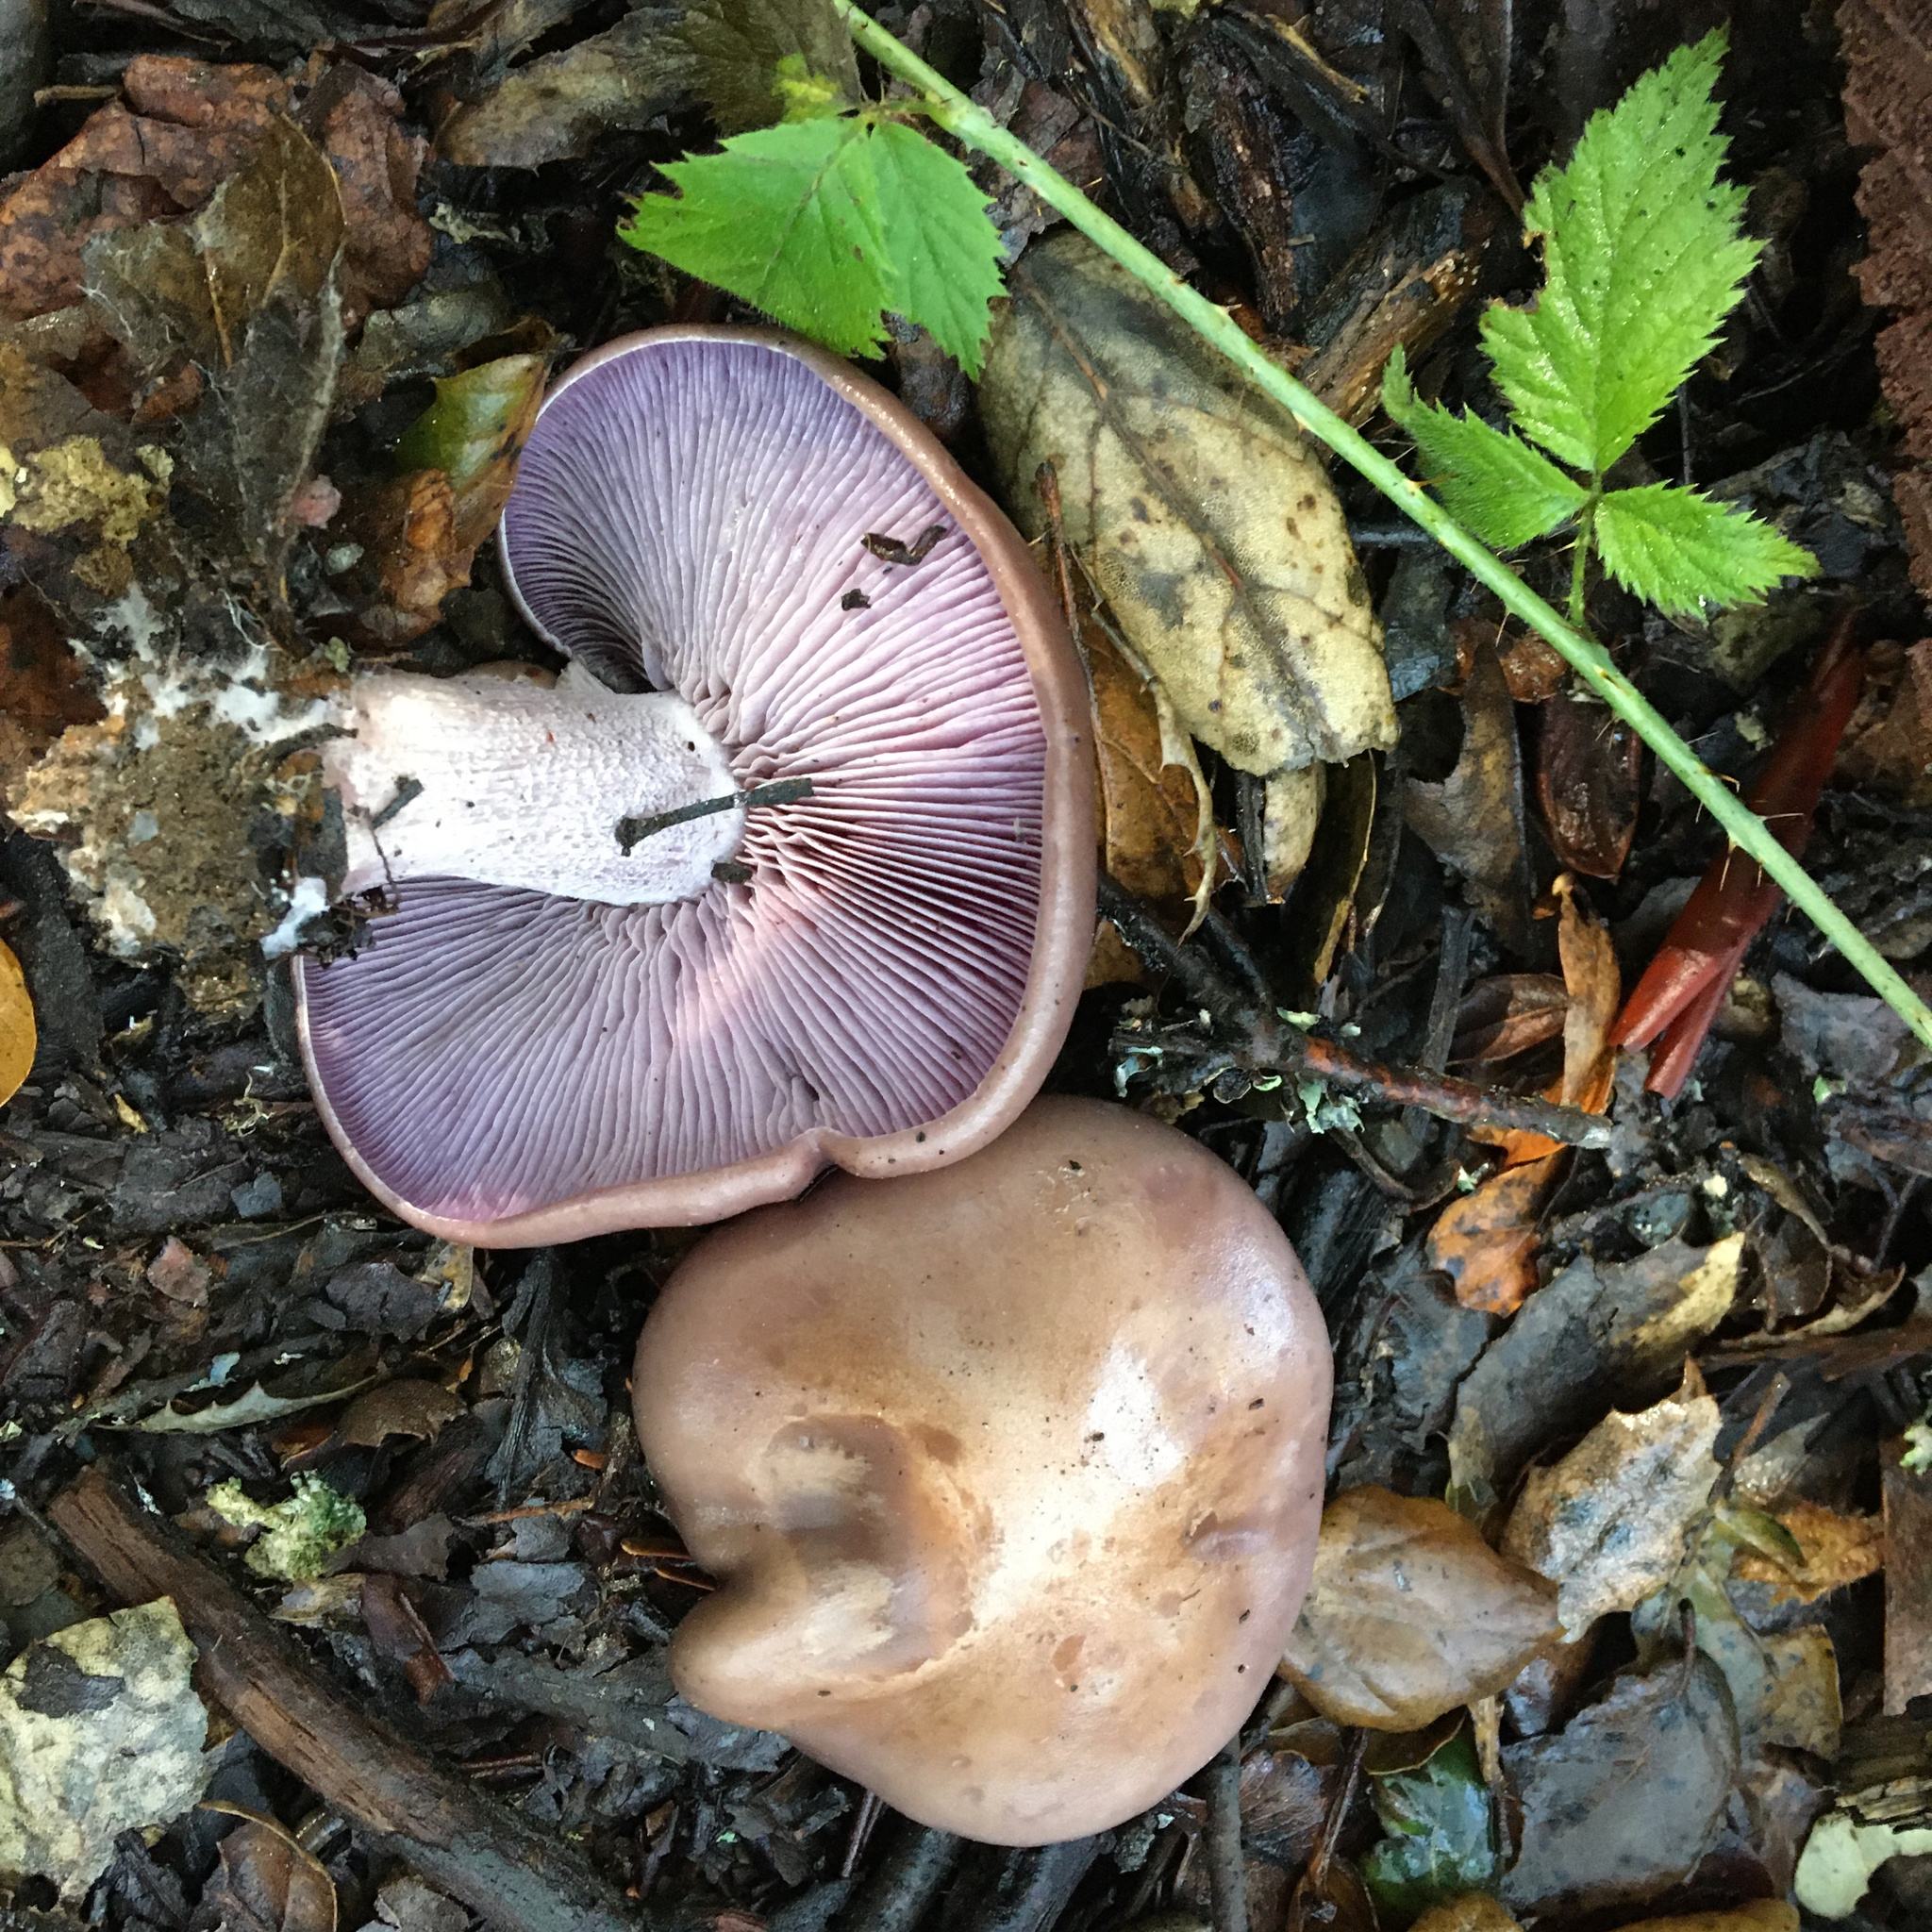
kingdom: Fungi
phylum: Basidiomycota
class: Agaricomycetes
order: Agaricales
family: Tricholomataceae
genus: Collybia
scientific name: Collybia
